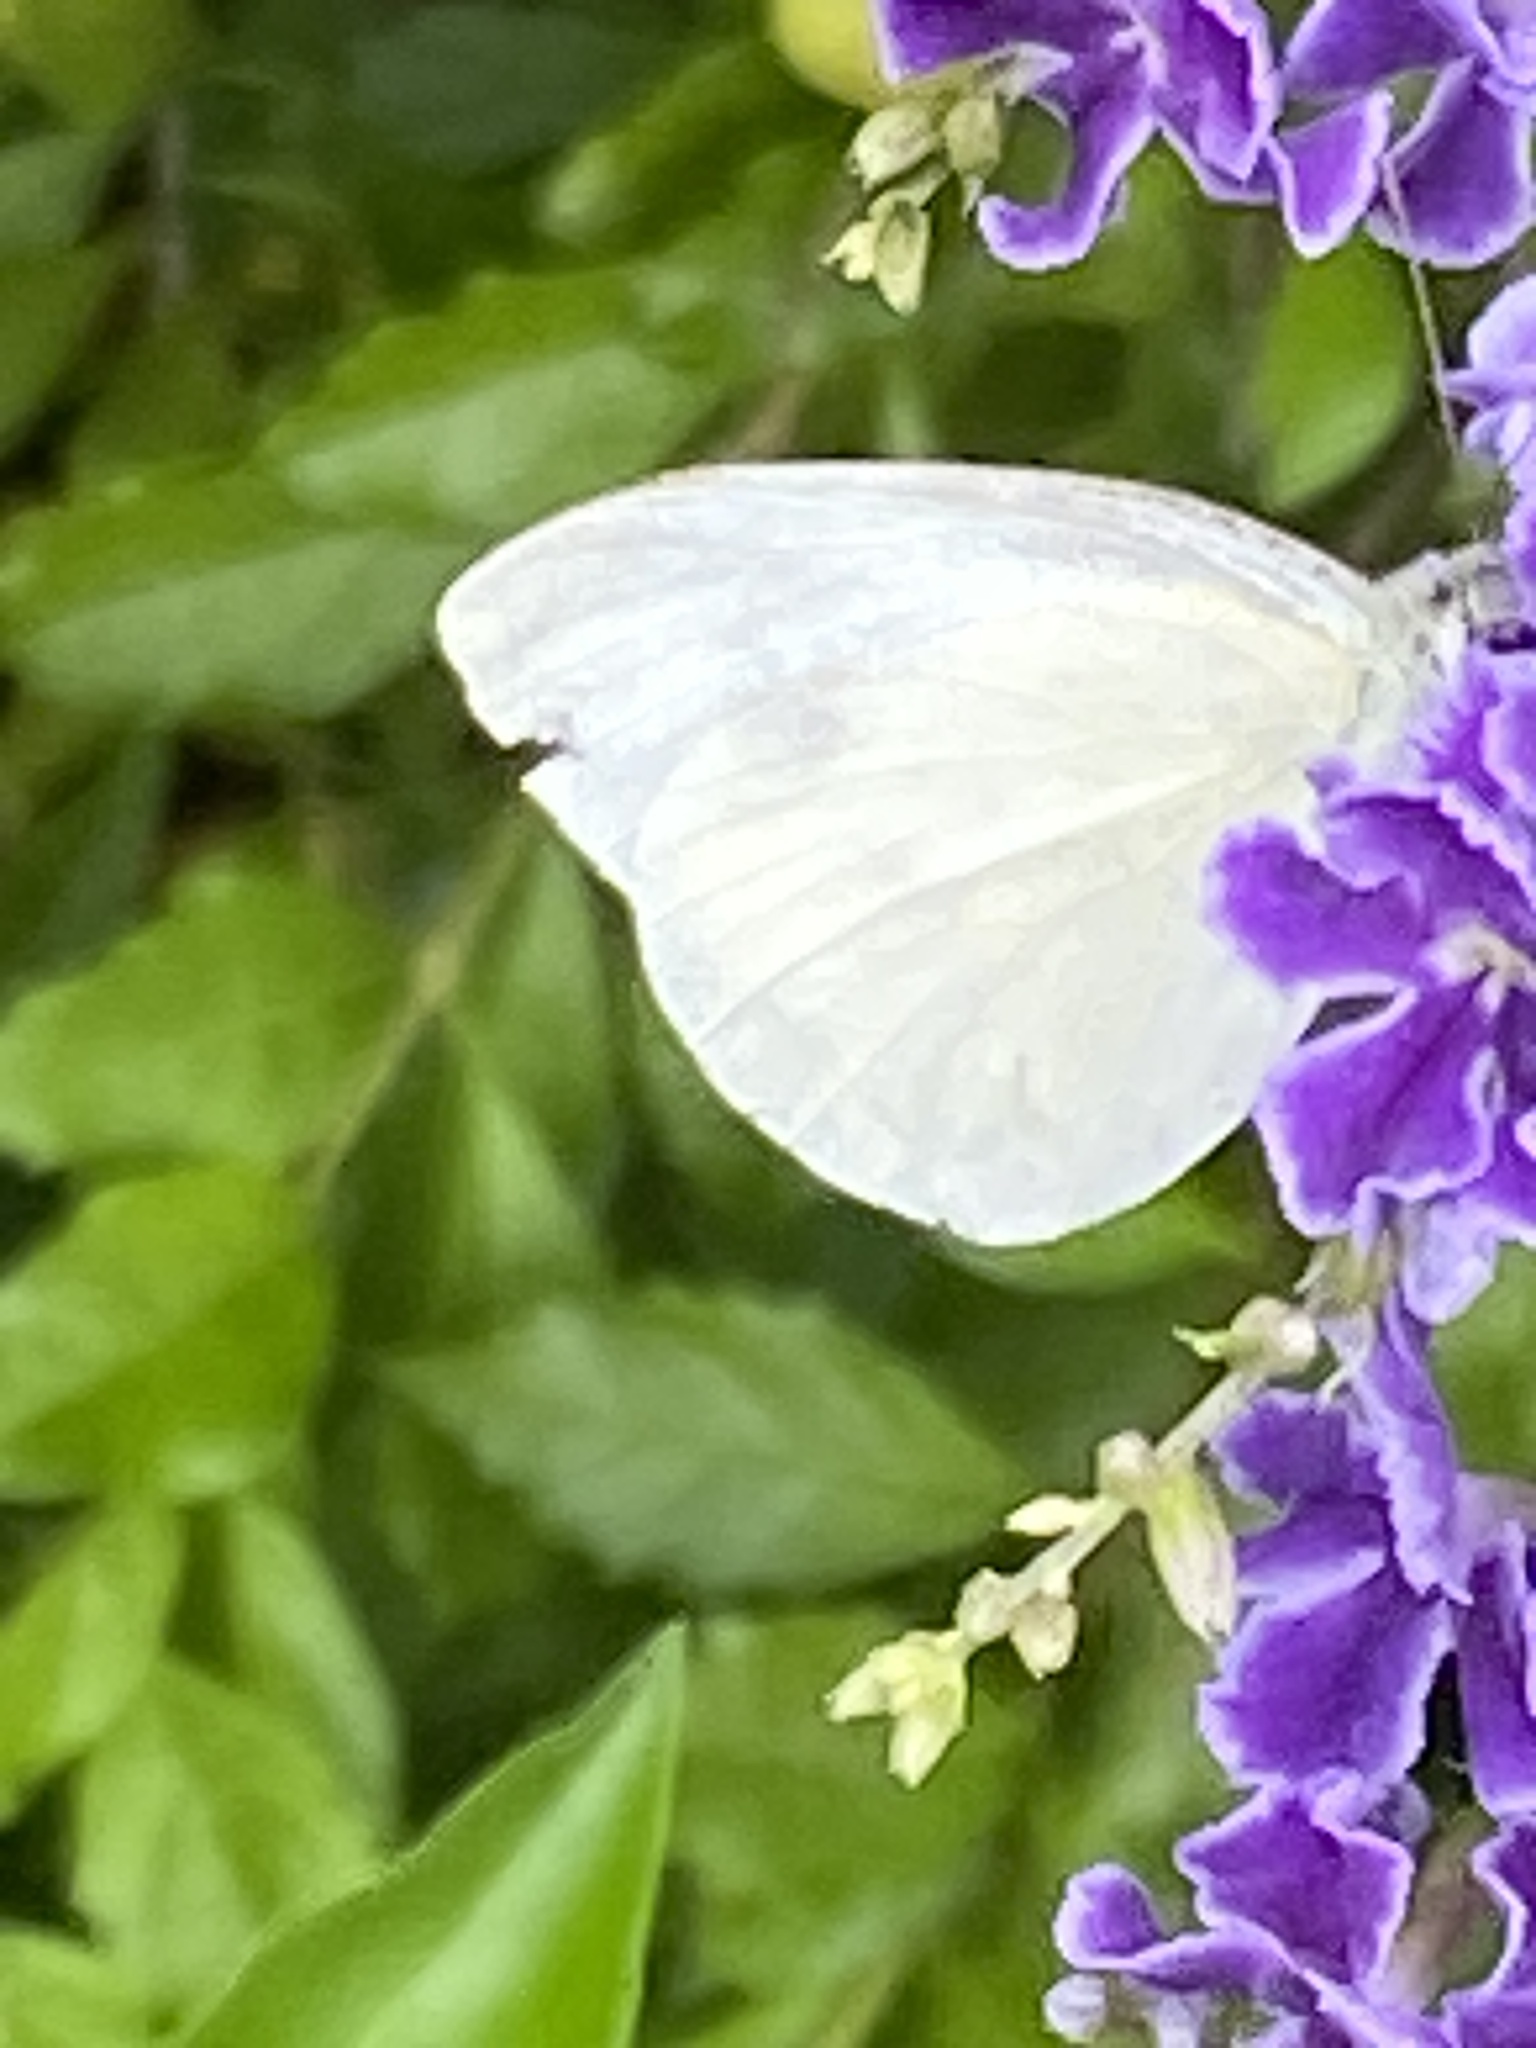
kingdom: Animalia
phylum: Arthropoda
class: Insecta
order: Lepidoptera
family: Pieridae
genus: Catopsilia
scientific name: Catopsilia pomona
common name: Common emigrant
